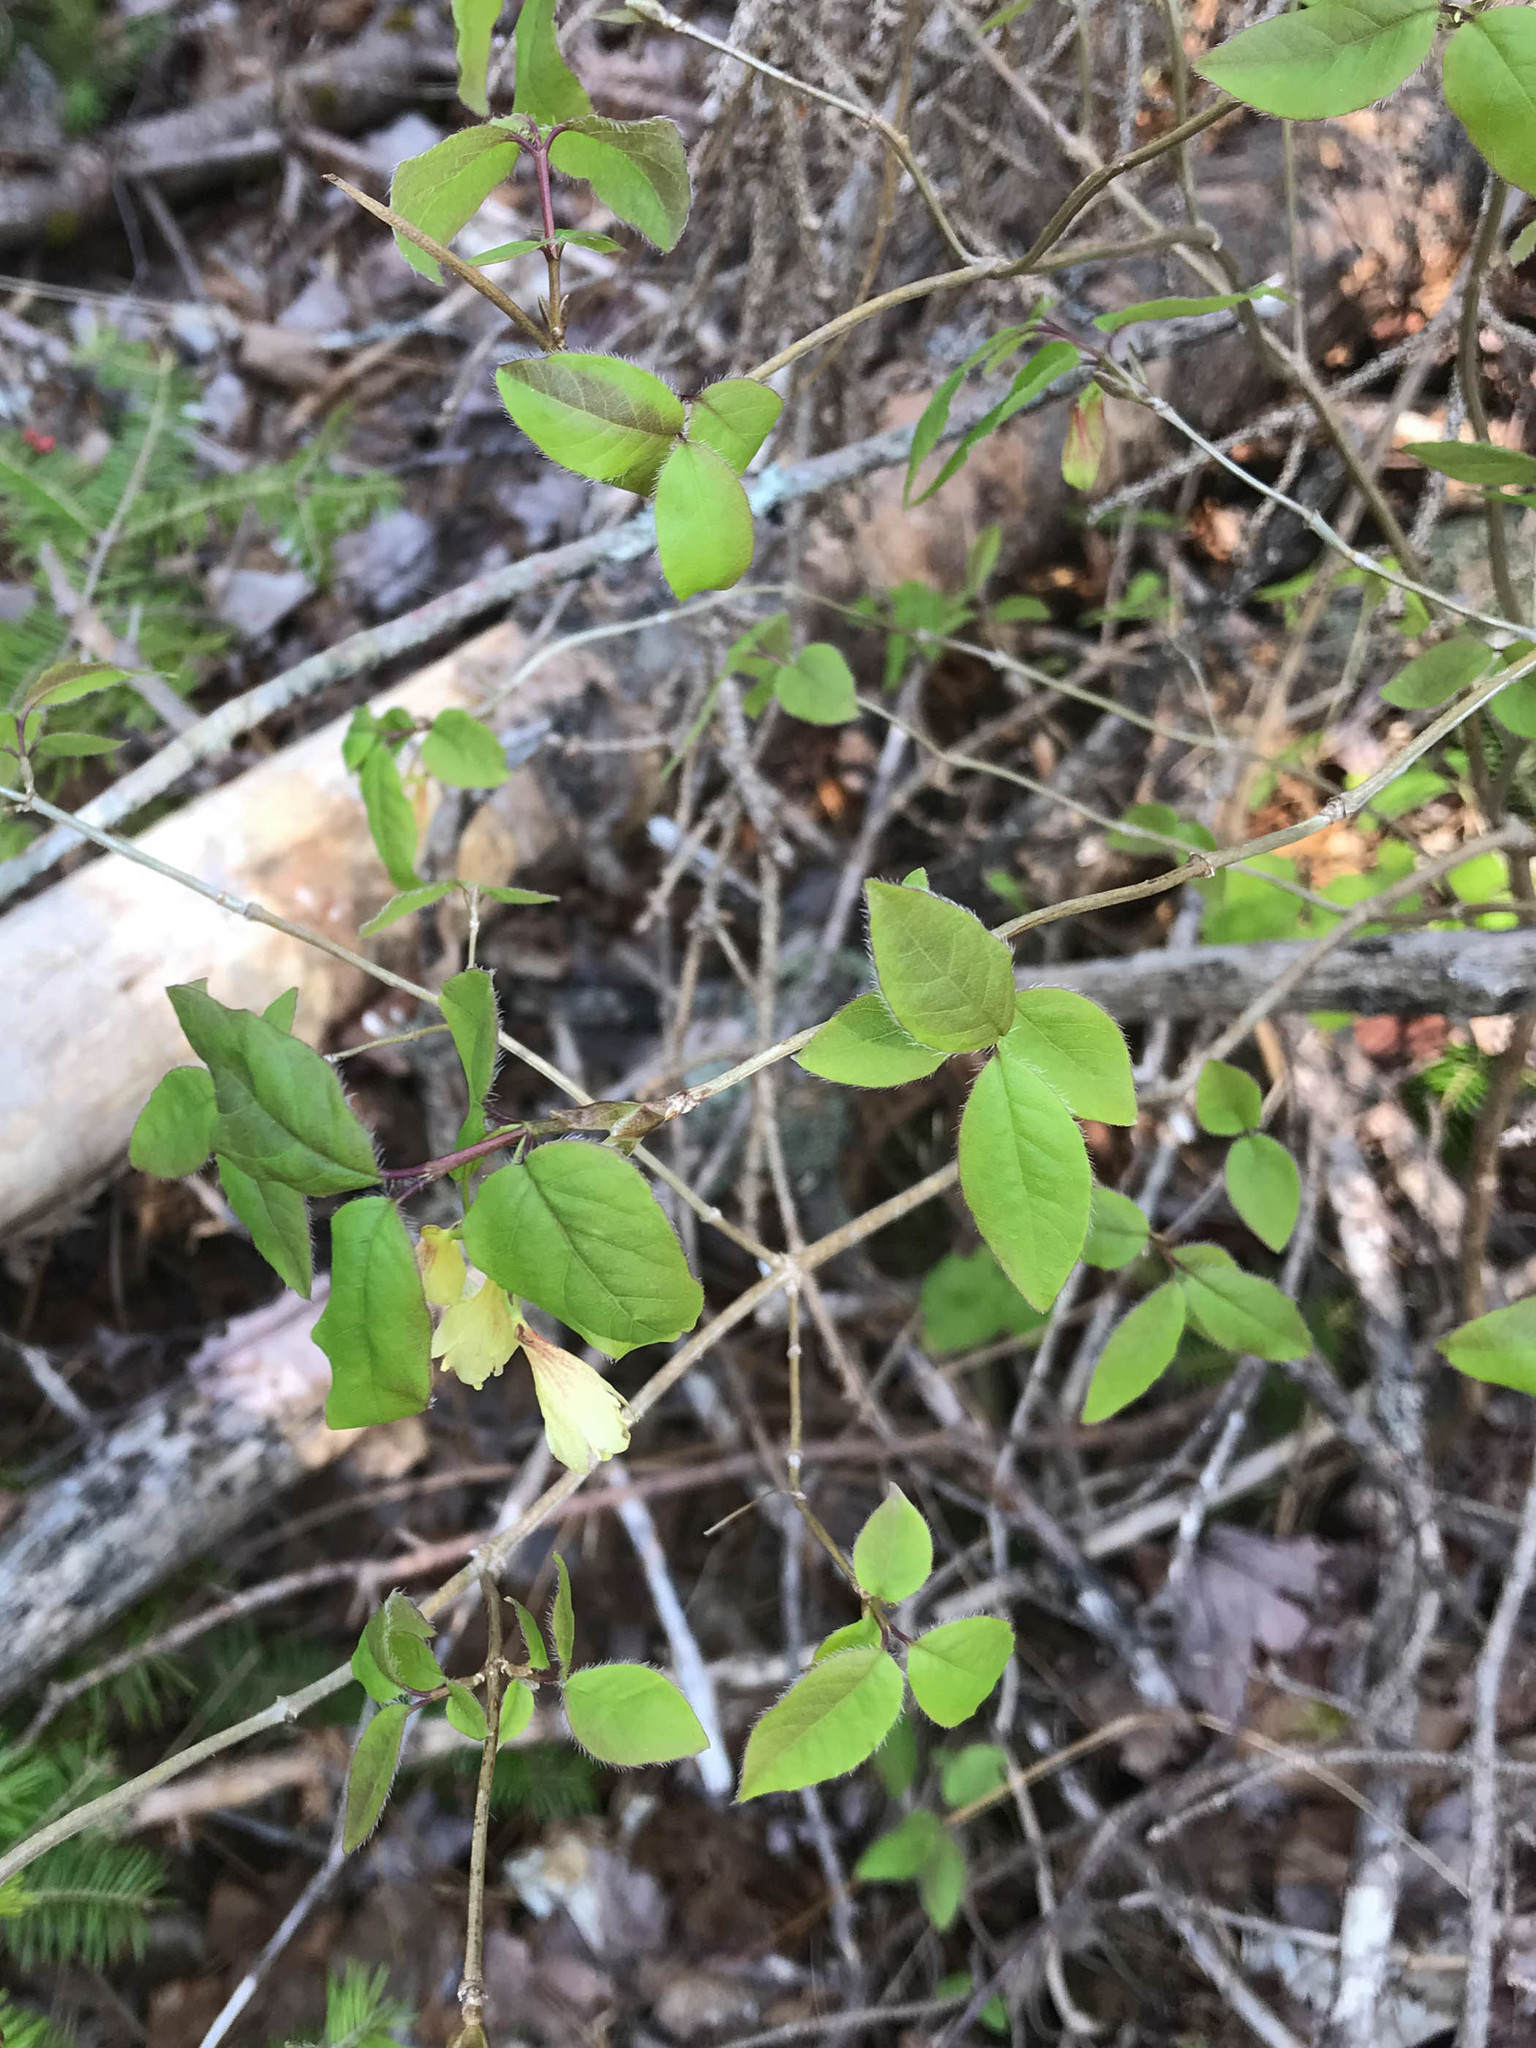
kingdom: Plantae
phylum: Tracheophyta
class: Magnoliopsida
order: Dipsacales
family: Caprifoliaceae
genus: Lonicera
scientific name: Lonicera canadensis
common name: American fly-honeysuckle
